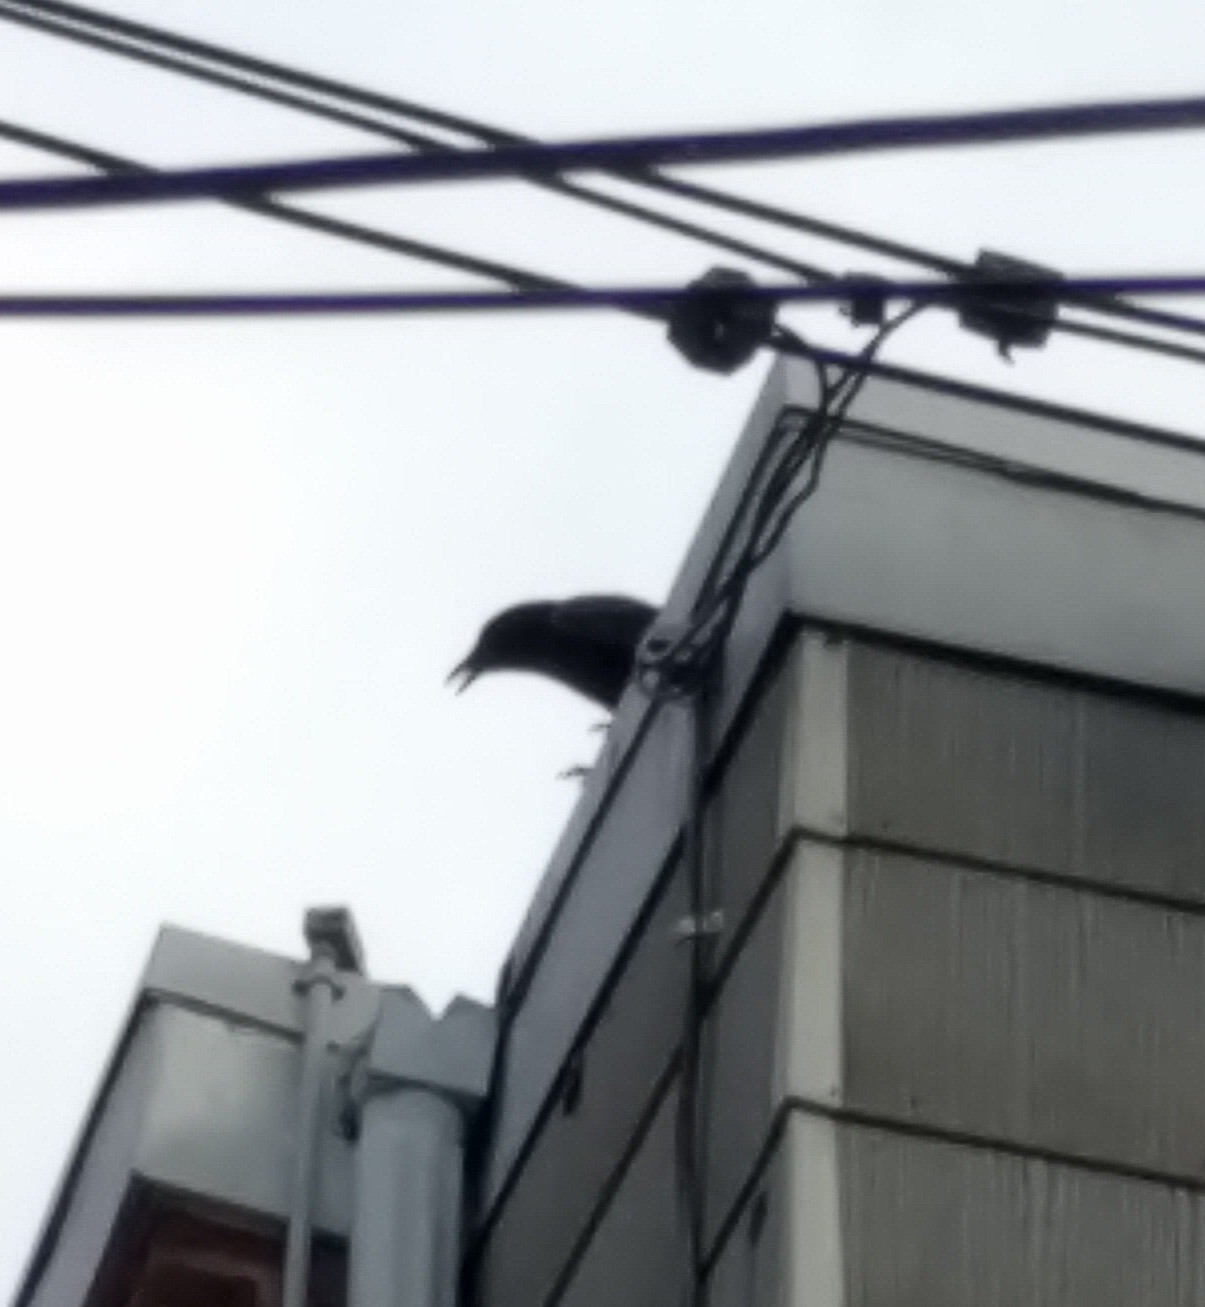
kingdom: Animalia
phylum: Chordata
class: Aves
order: Passeriformes
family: Corvidae
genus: Corvus
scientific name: Corvus brachyrhynchos
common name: American crow
